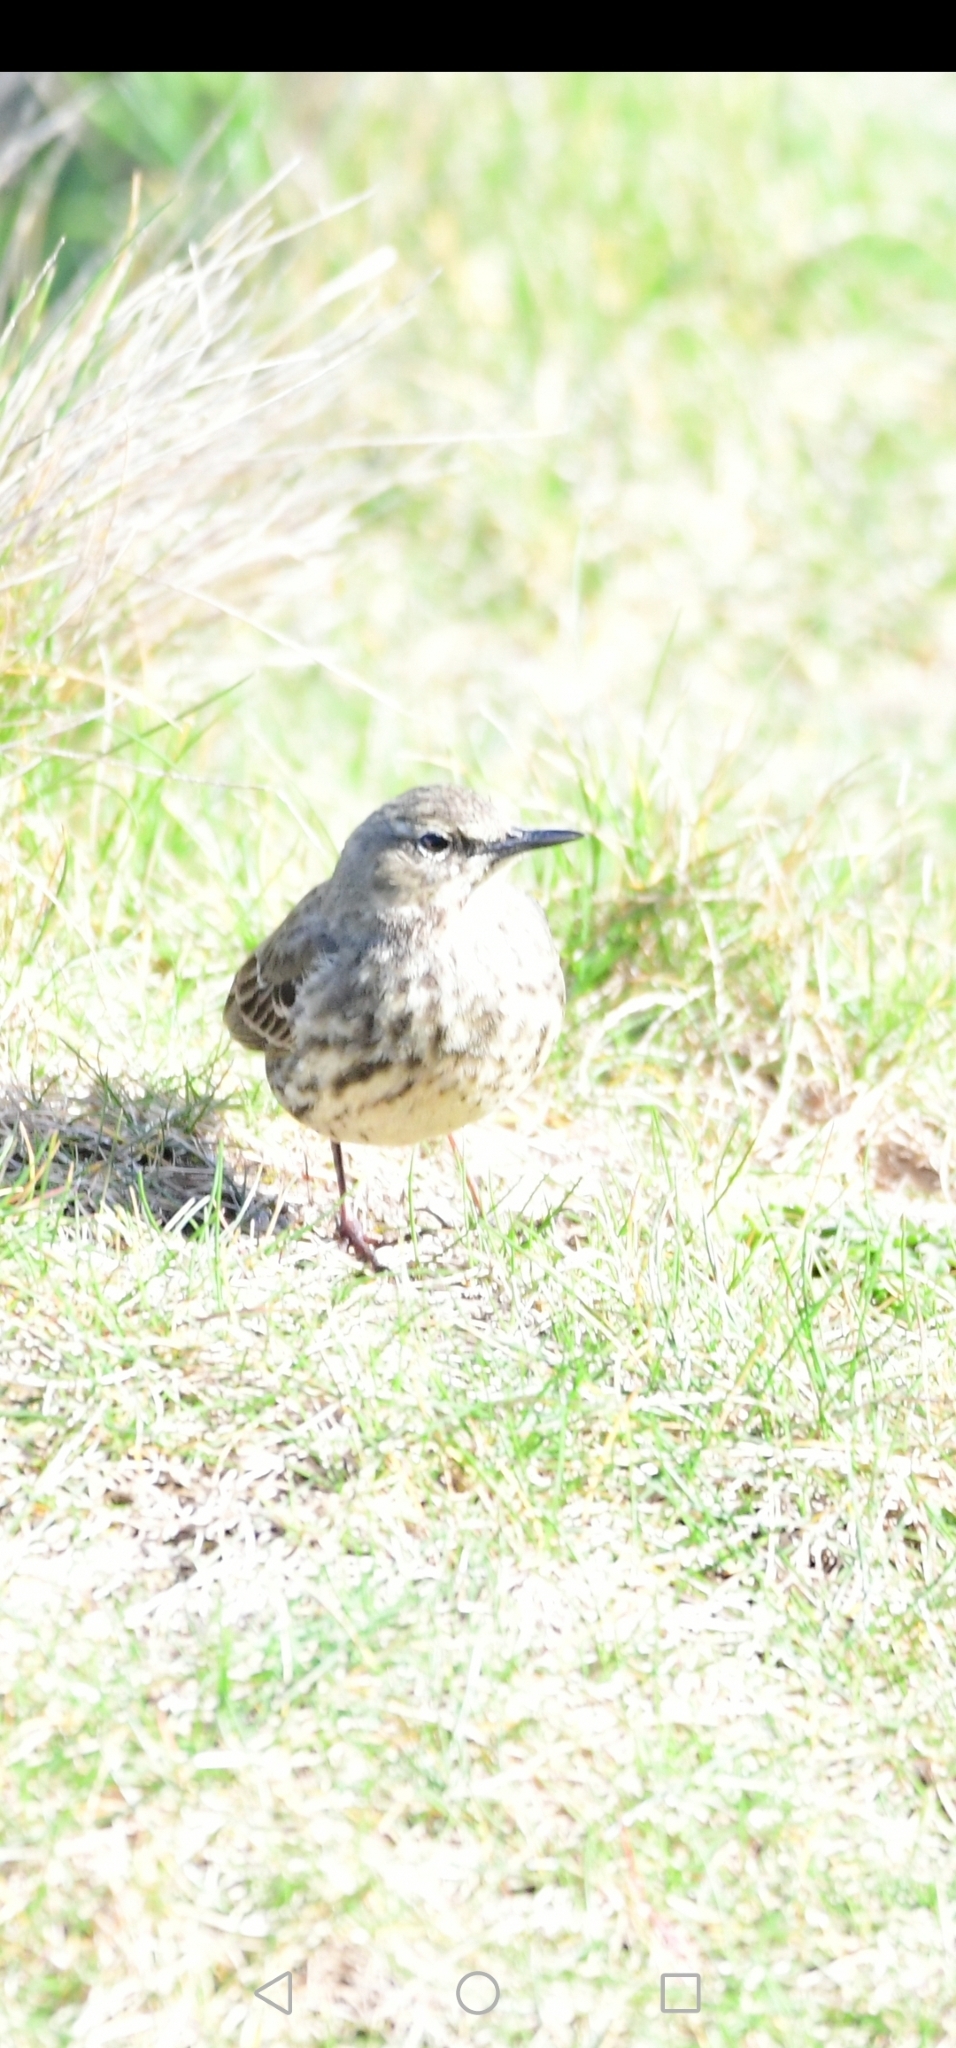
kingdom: Animalia
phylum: Chordata
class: Aves
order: Passeriformes
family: Motacillidae
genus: Anthus
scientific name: Anthus petrosus
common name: Eurasian rock pipit
